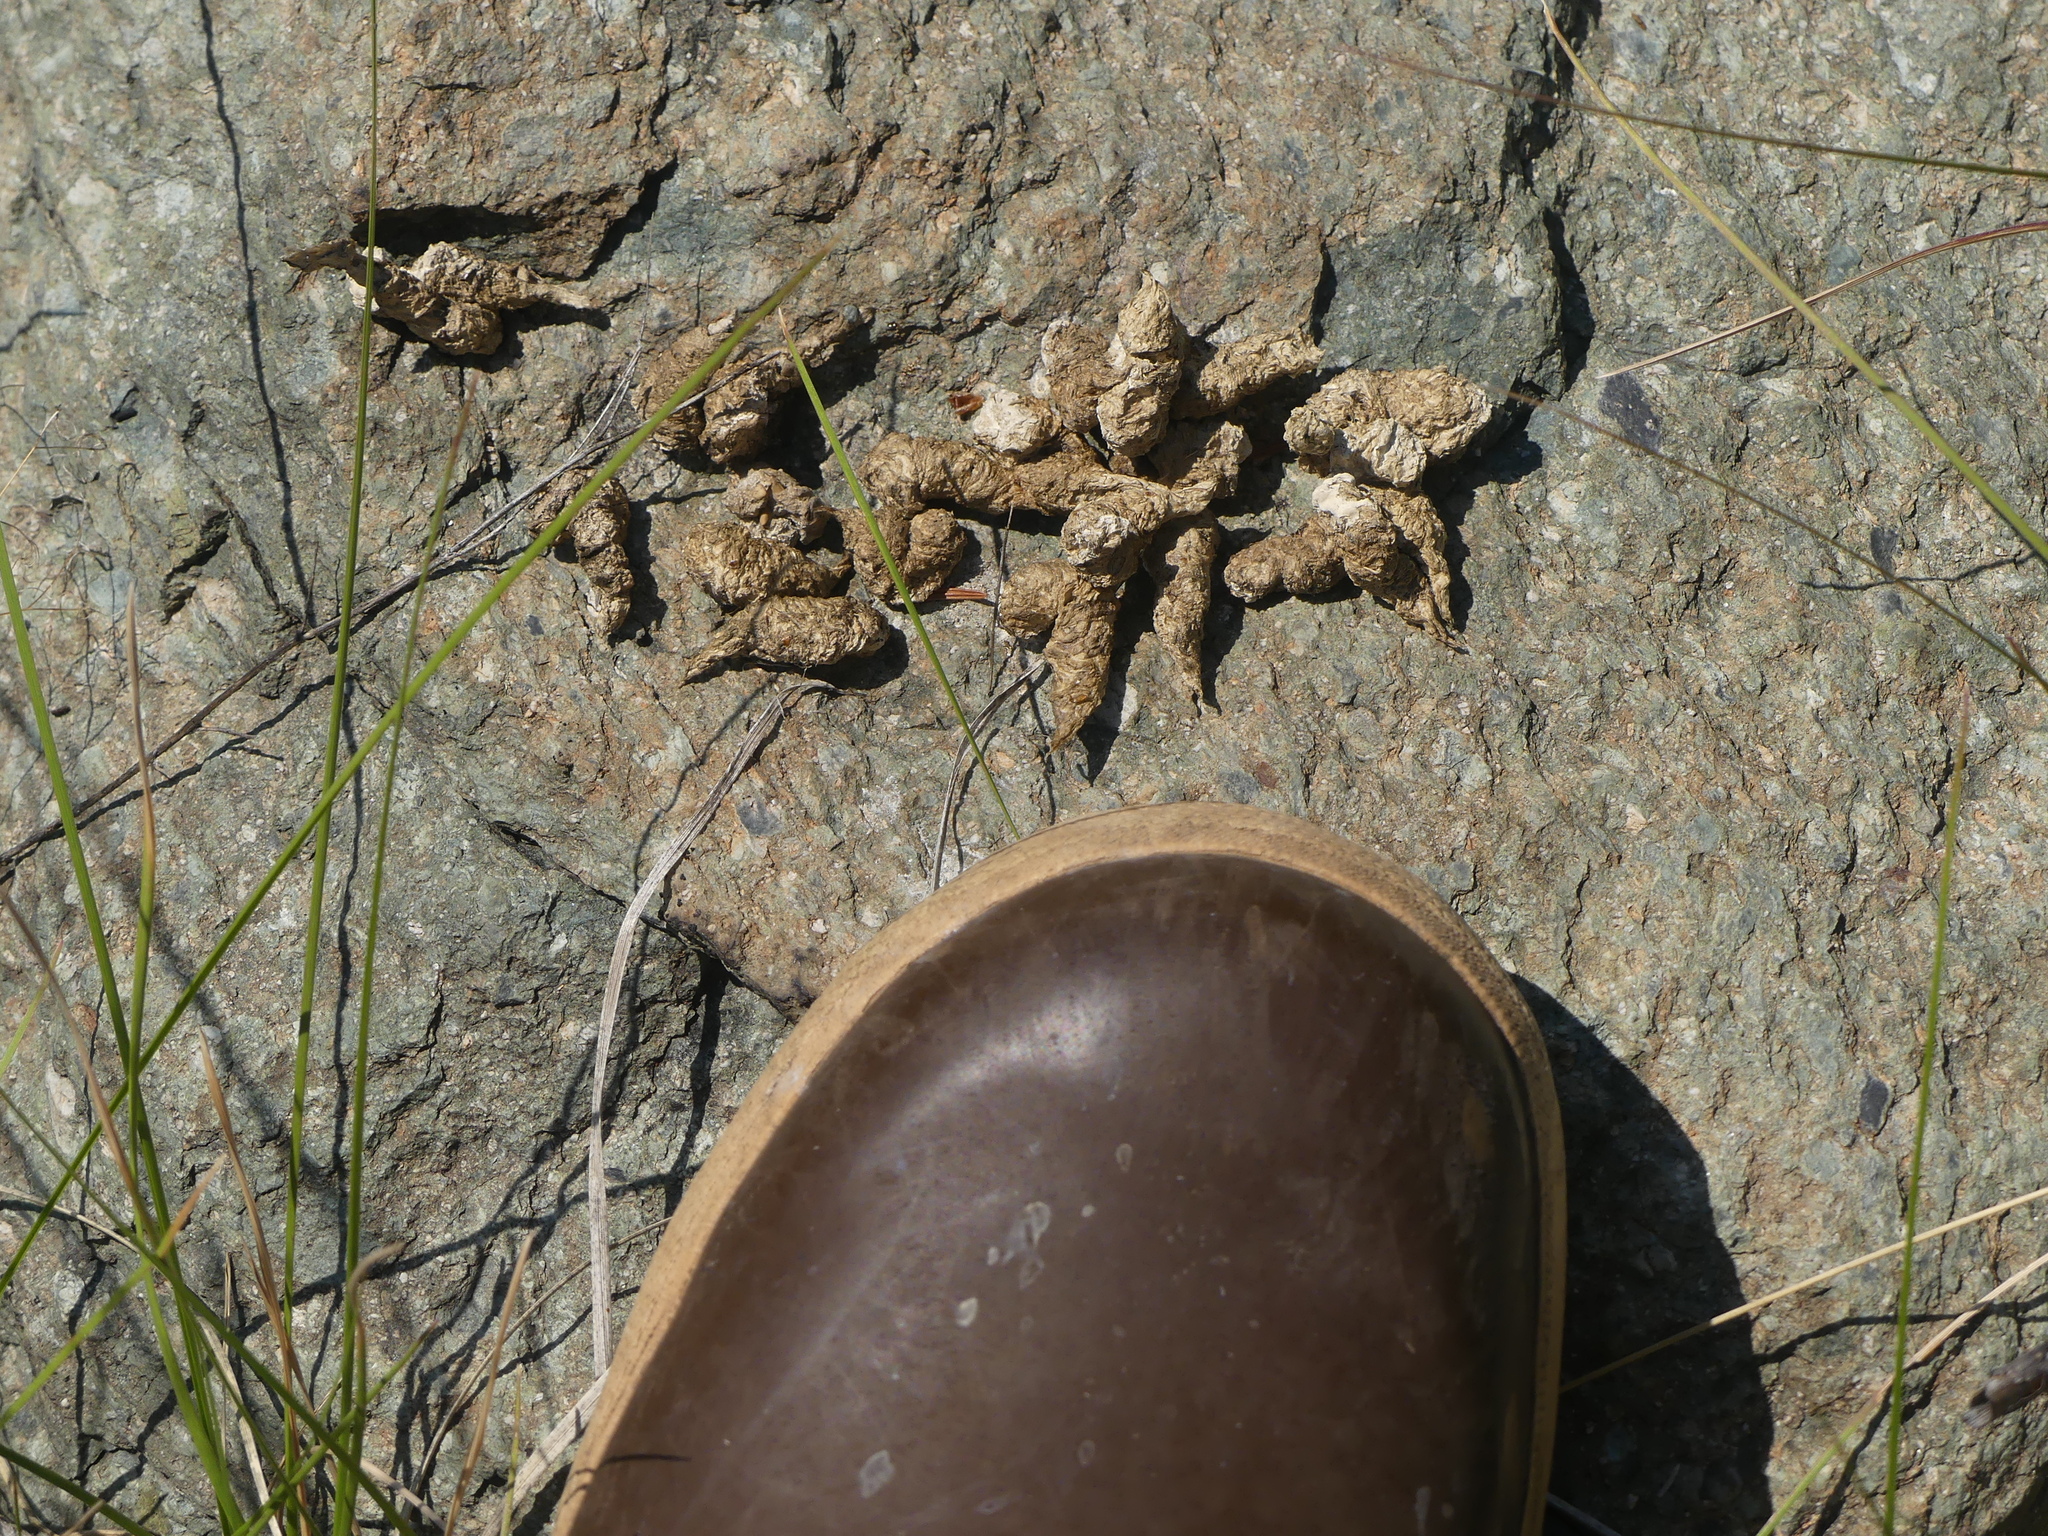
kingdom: Animalia
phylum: Chordata
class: Aves
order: Galliformes
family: Phasianidae
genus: Bonasa
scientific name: Bonasa umbellus
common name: Ruffed grouse
